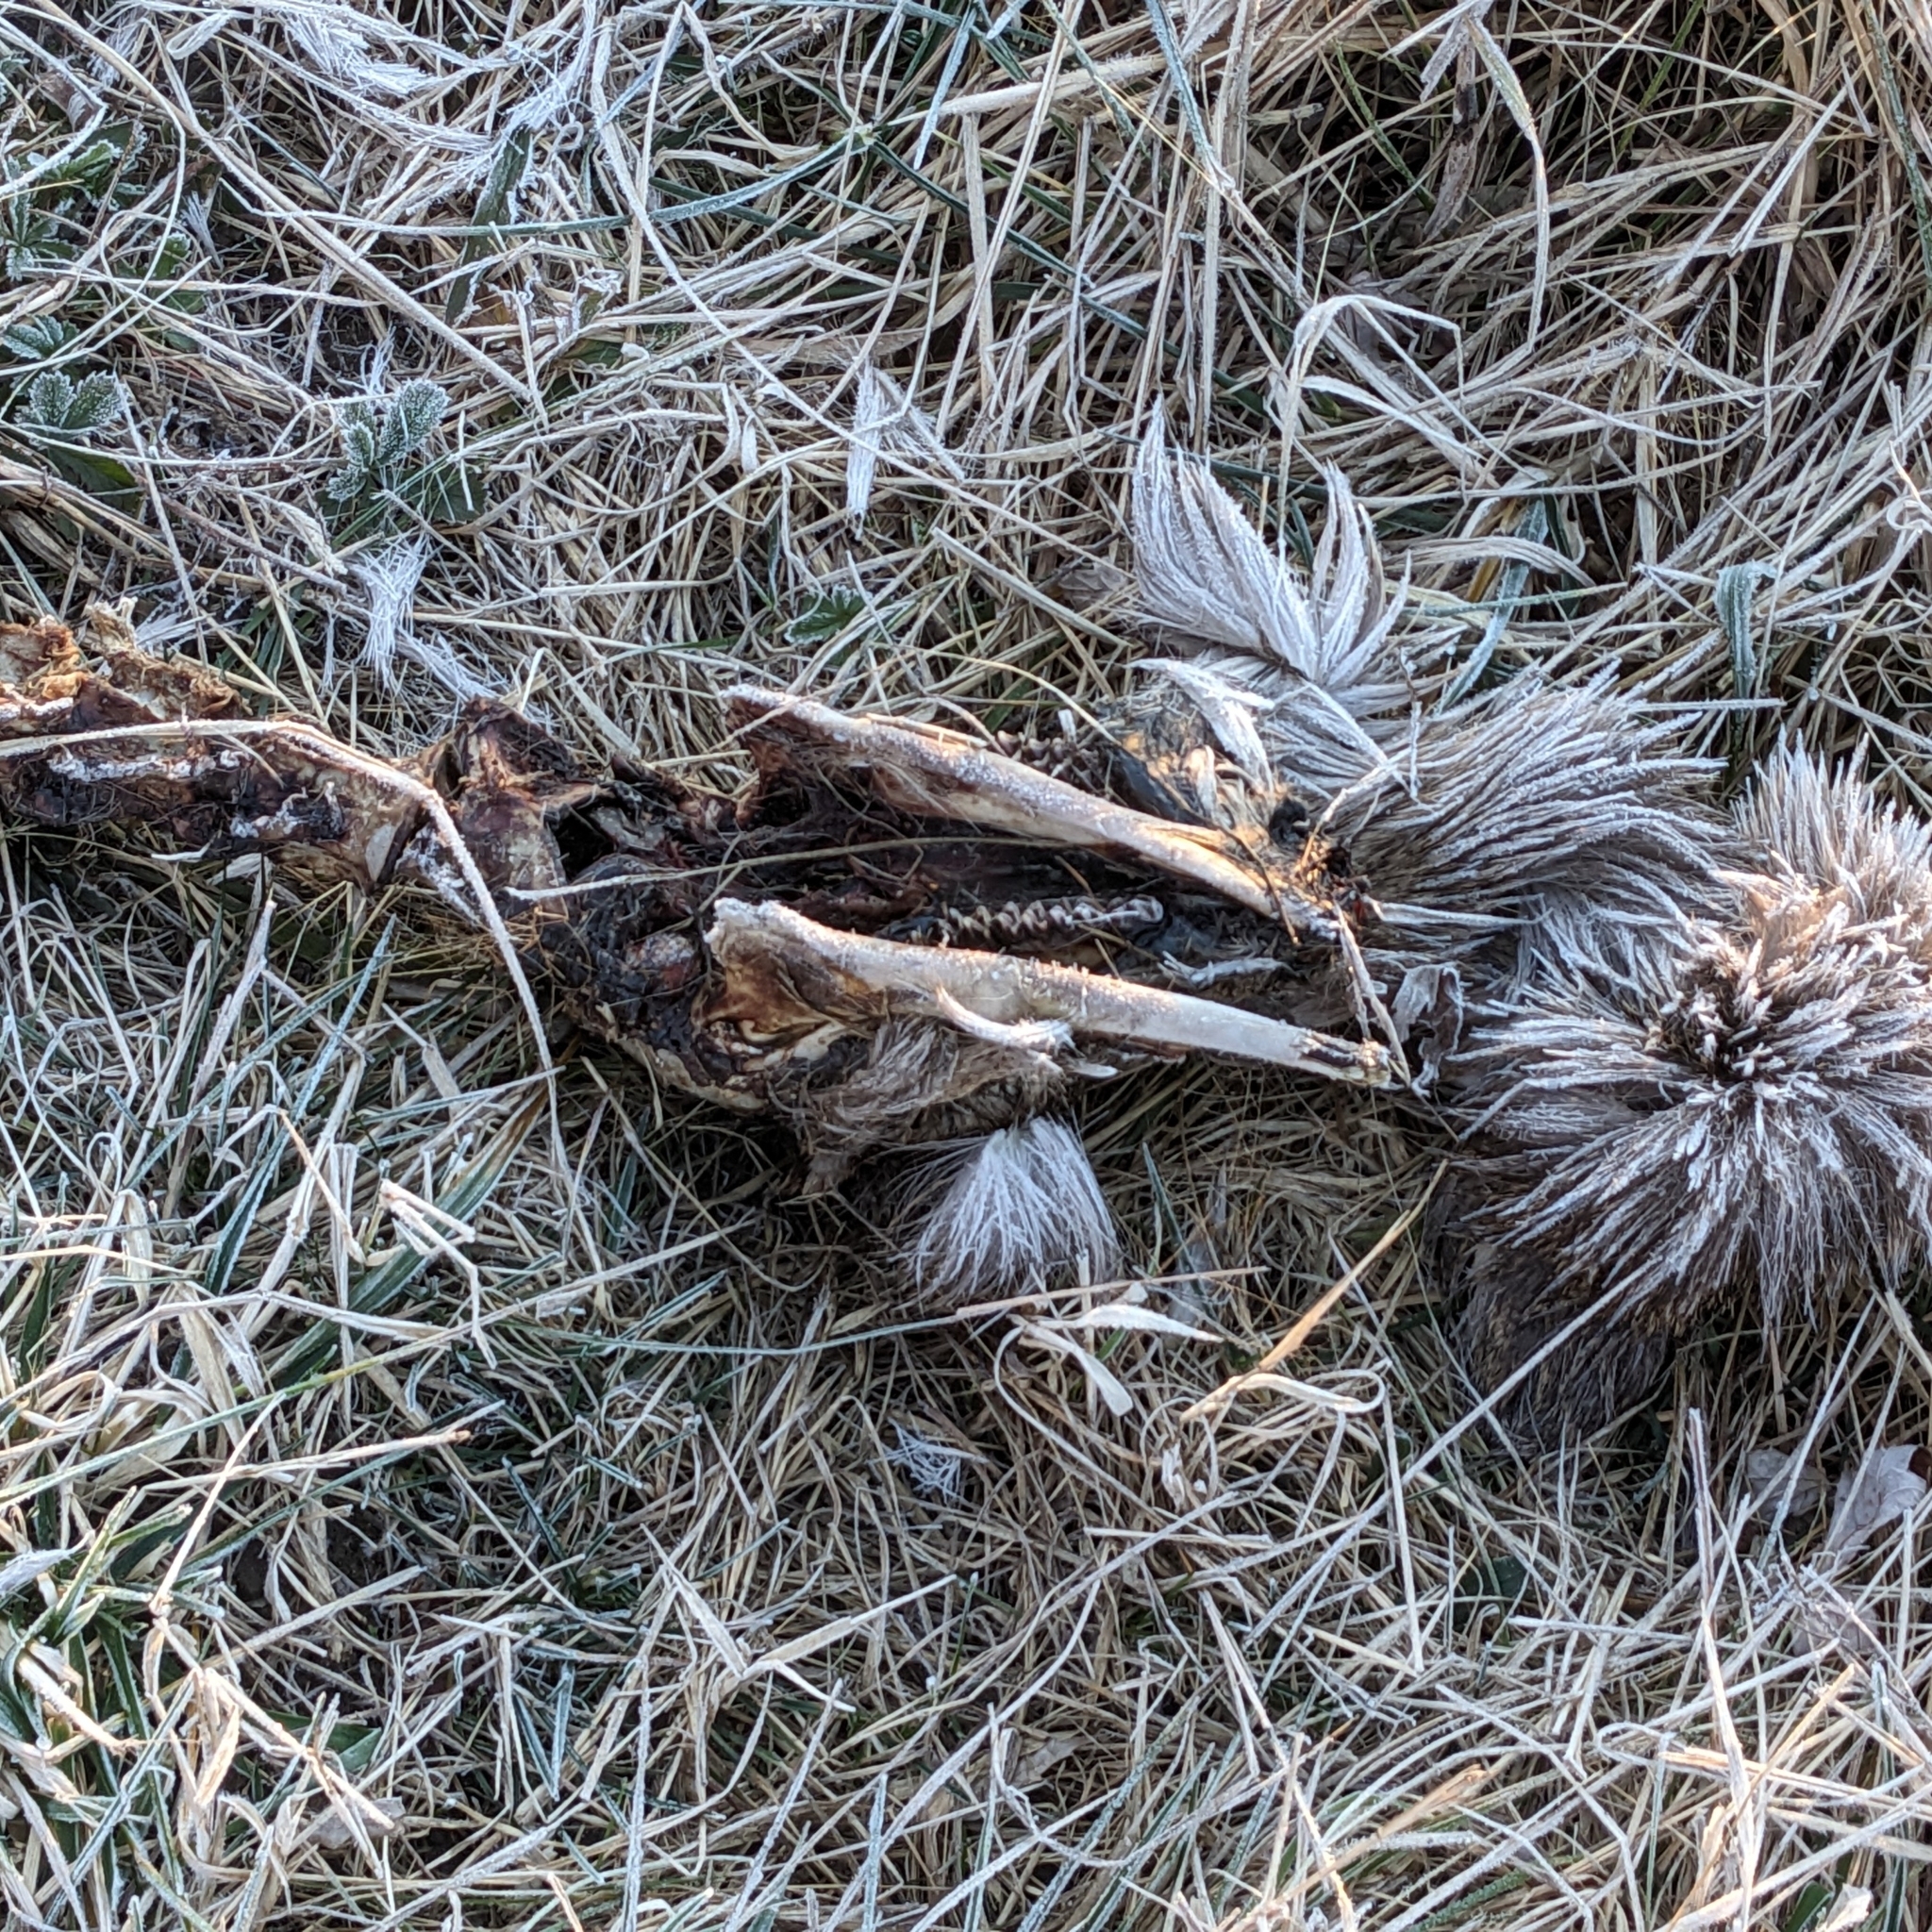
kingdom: Animalia
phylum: Chordata
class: Mammalia
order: Artiodactyla
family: Cervidae
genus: Odocoileus
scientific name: Odocoileus virginianus
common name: White-tailed deer
